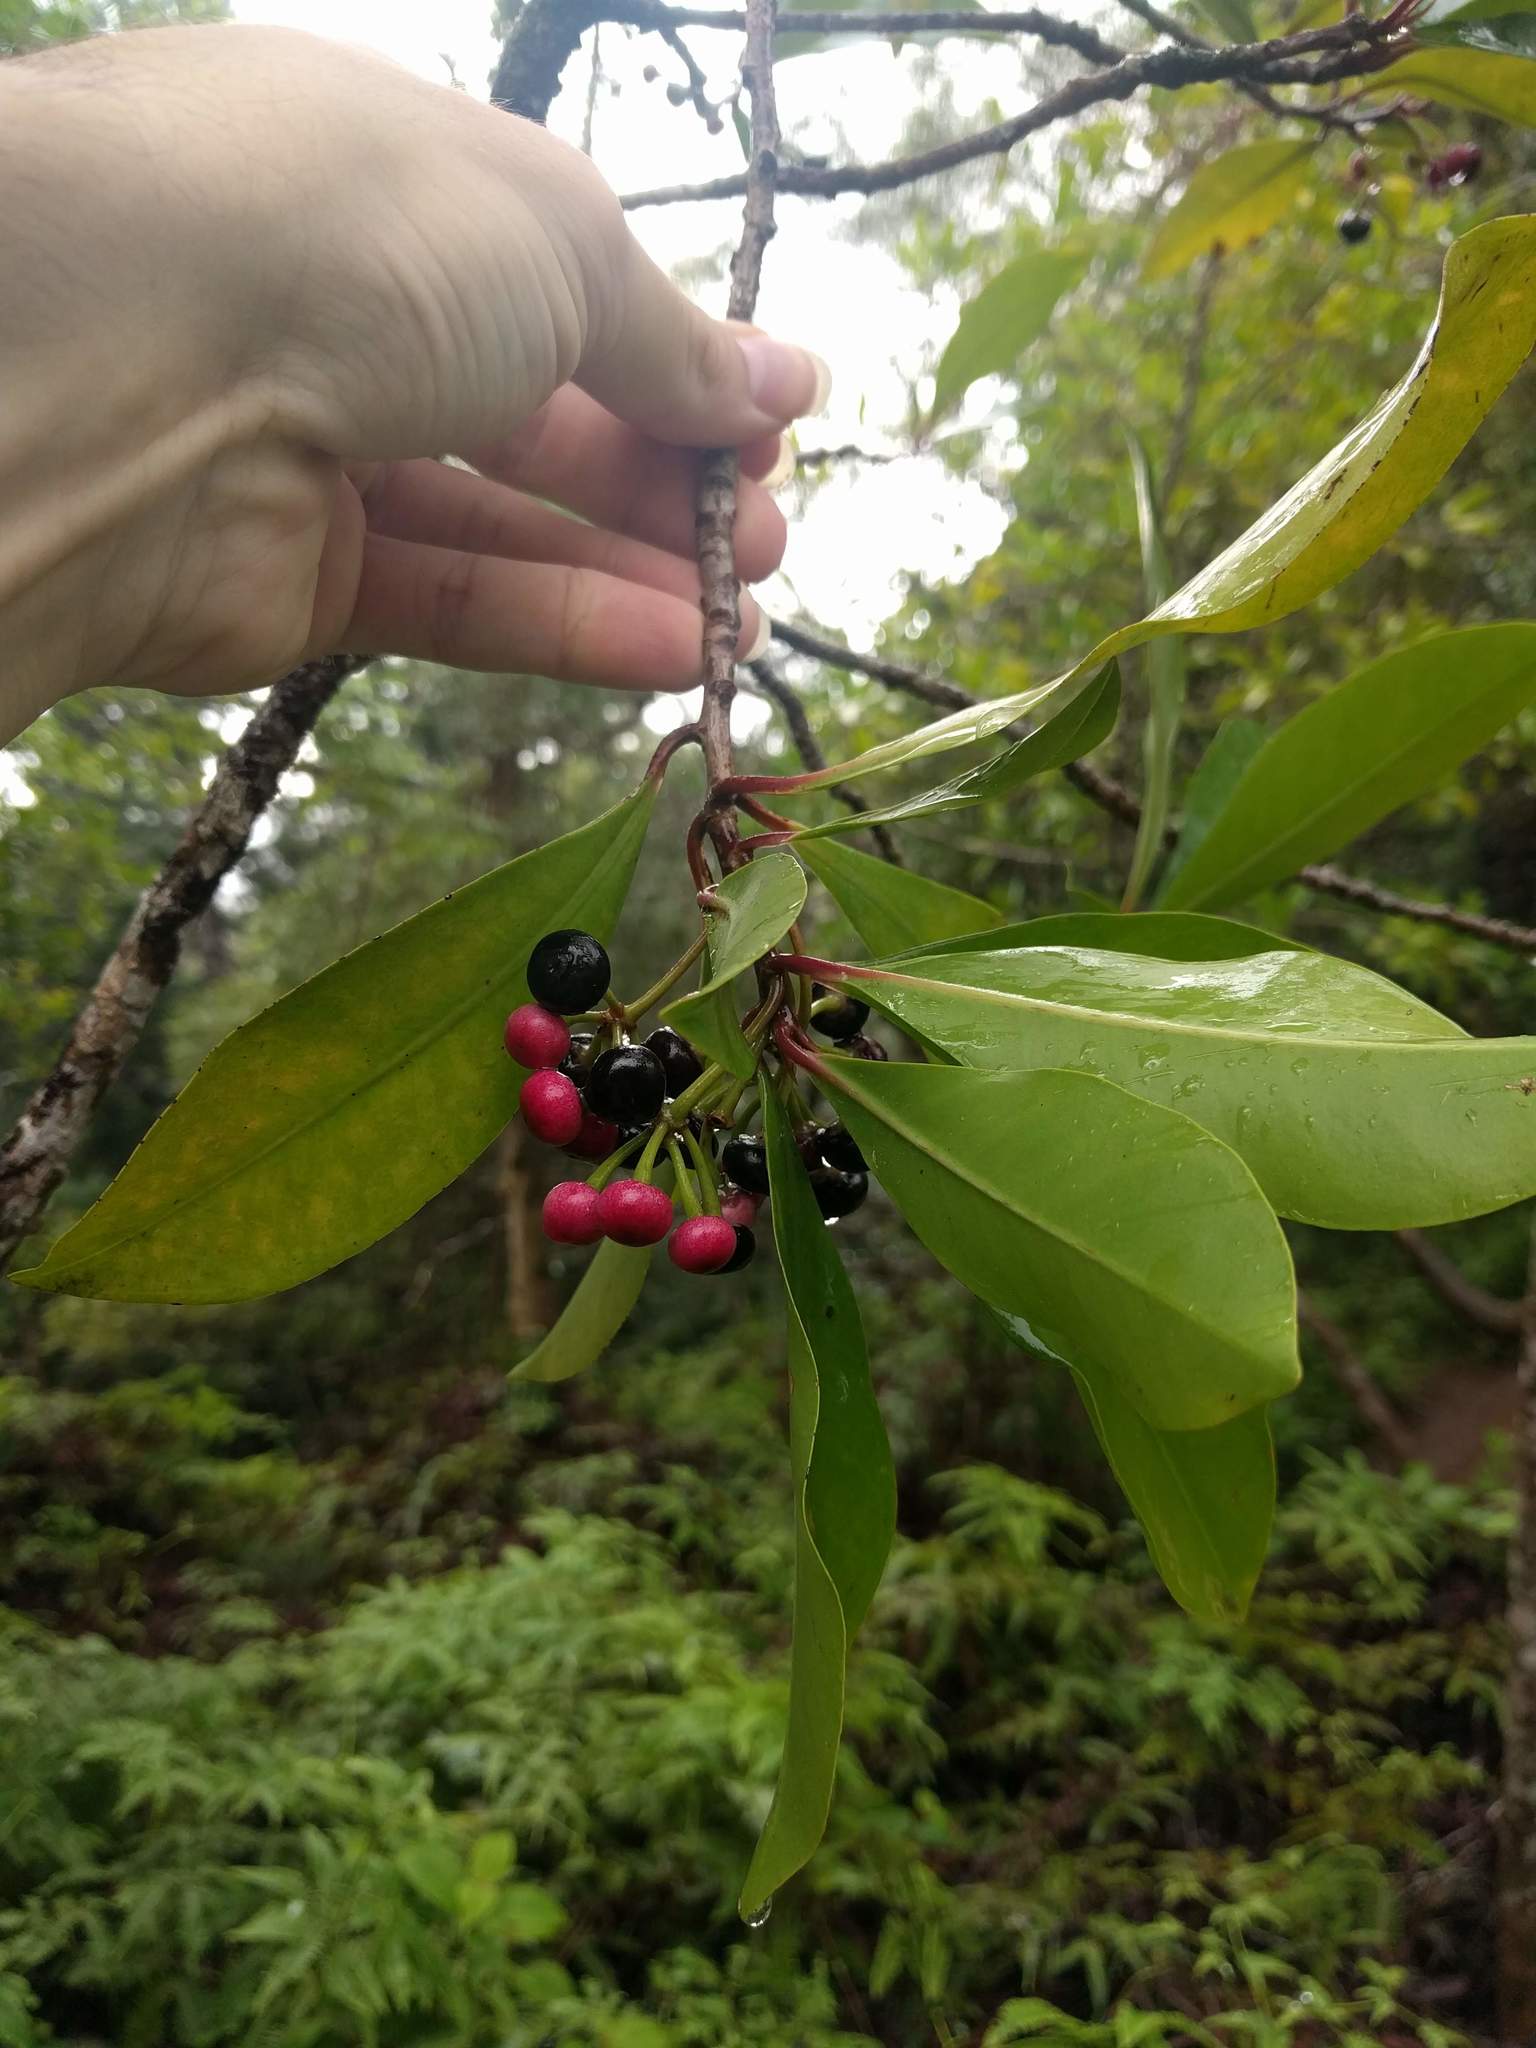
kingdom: Plantae
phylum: Tracheophyta
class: Magnoliopsida
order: Ericales
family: Primulaceae
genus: Ardisia
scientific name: Ardisia elliptica
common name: Shoebutton
